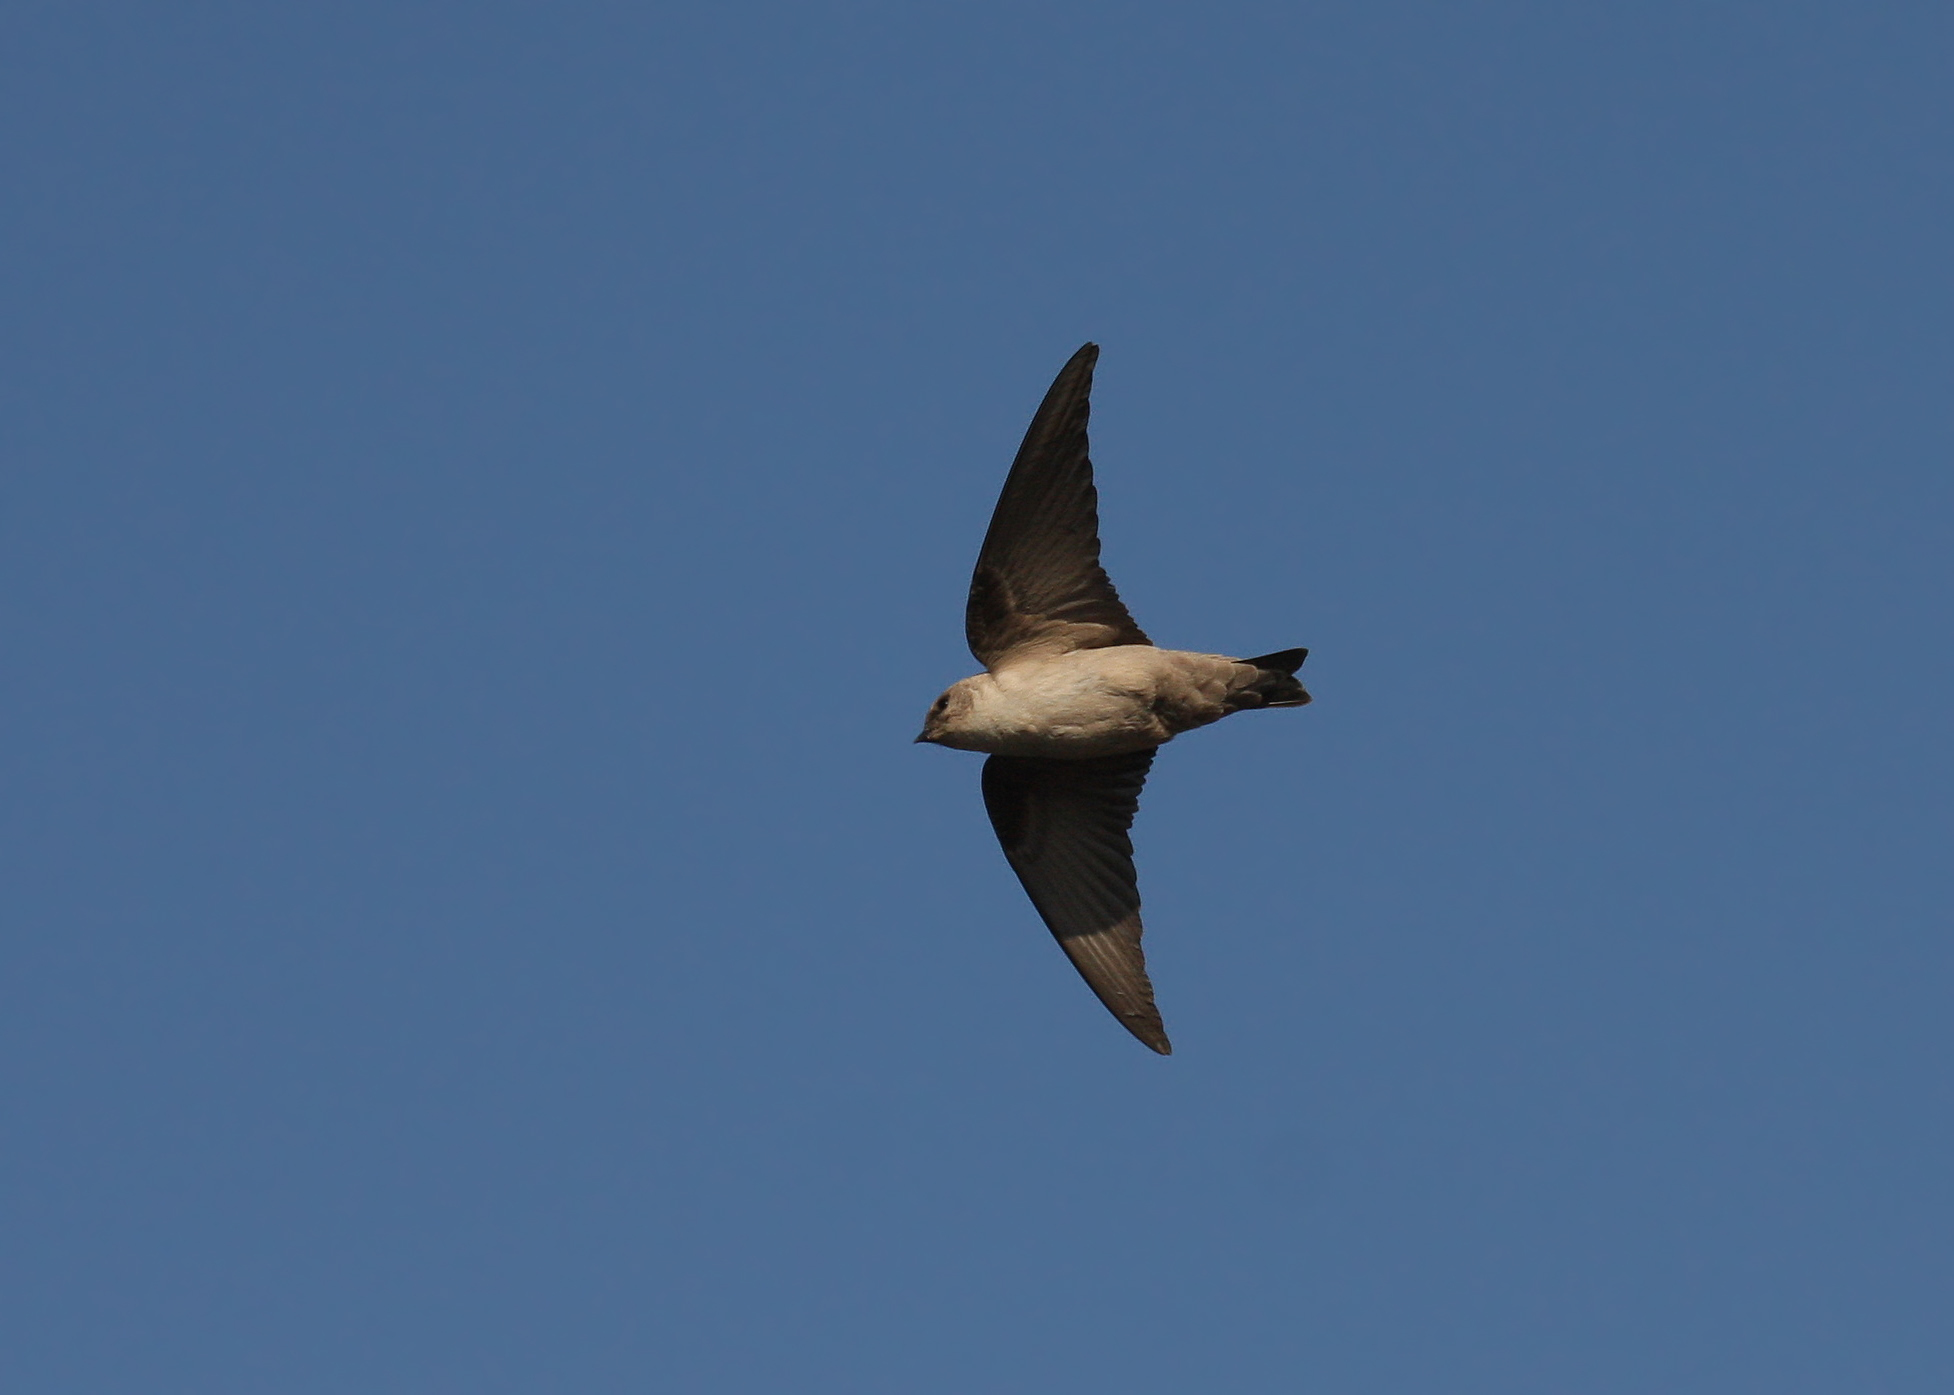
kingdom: Animalia
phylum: Chordata
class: Aves
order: Passeriformes
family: Hirundinidae
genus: Ptyonoprogne
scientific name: Ptyonoprogne fuligula
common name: Rock martin
